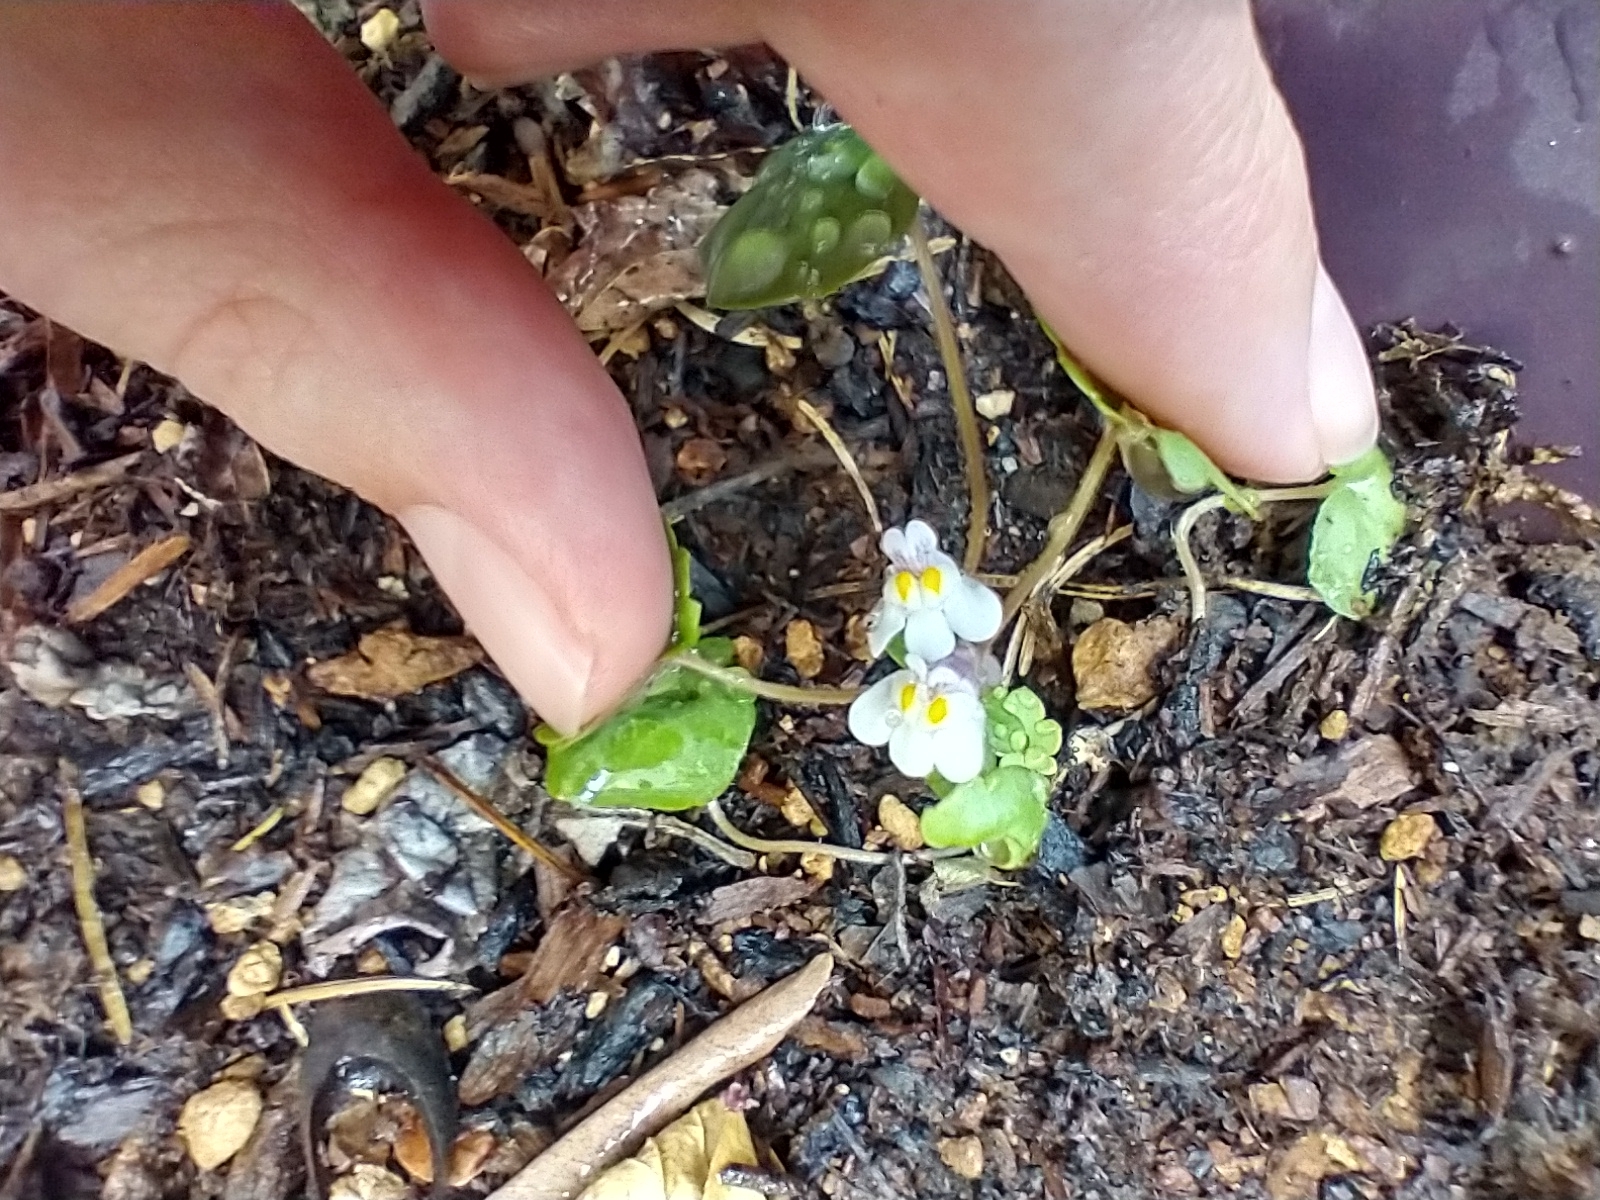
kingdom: Plantae
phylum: Tracheophyta
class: Magnoliopsida
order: Lamiales
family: Plantaginaceae
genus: Cymbalaria
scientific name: Cymbalaria muralis
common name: Ivy-leaved toadflax
